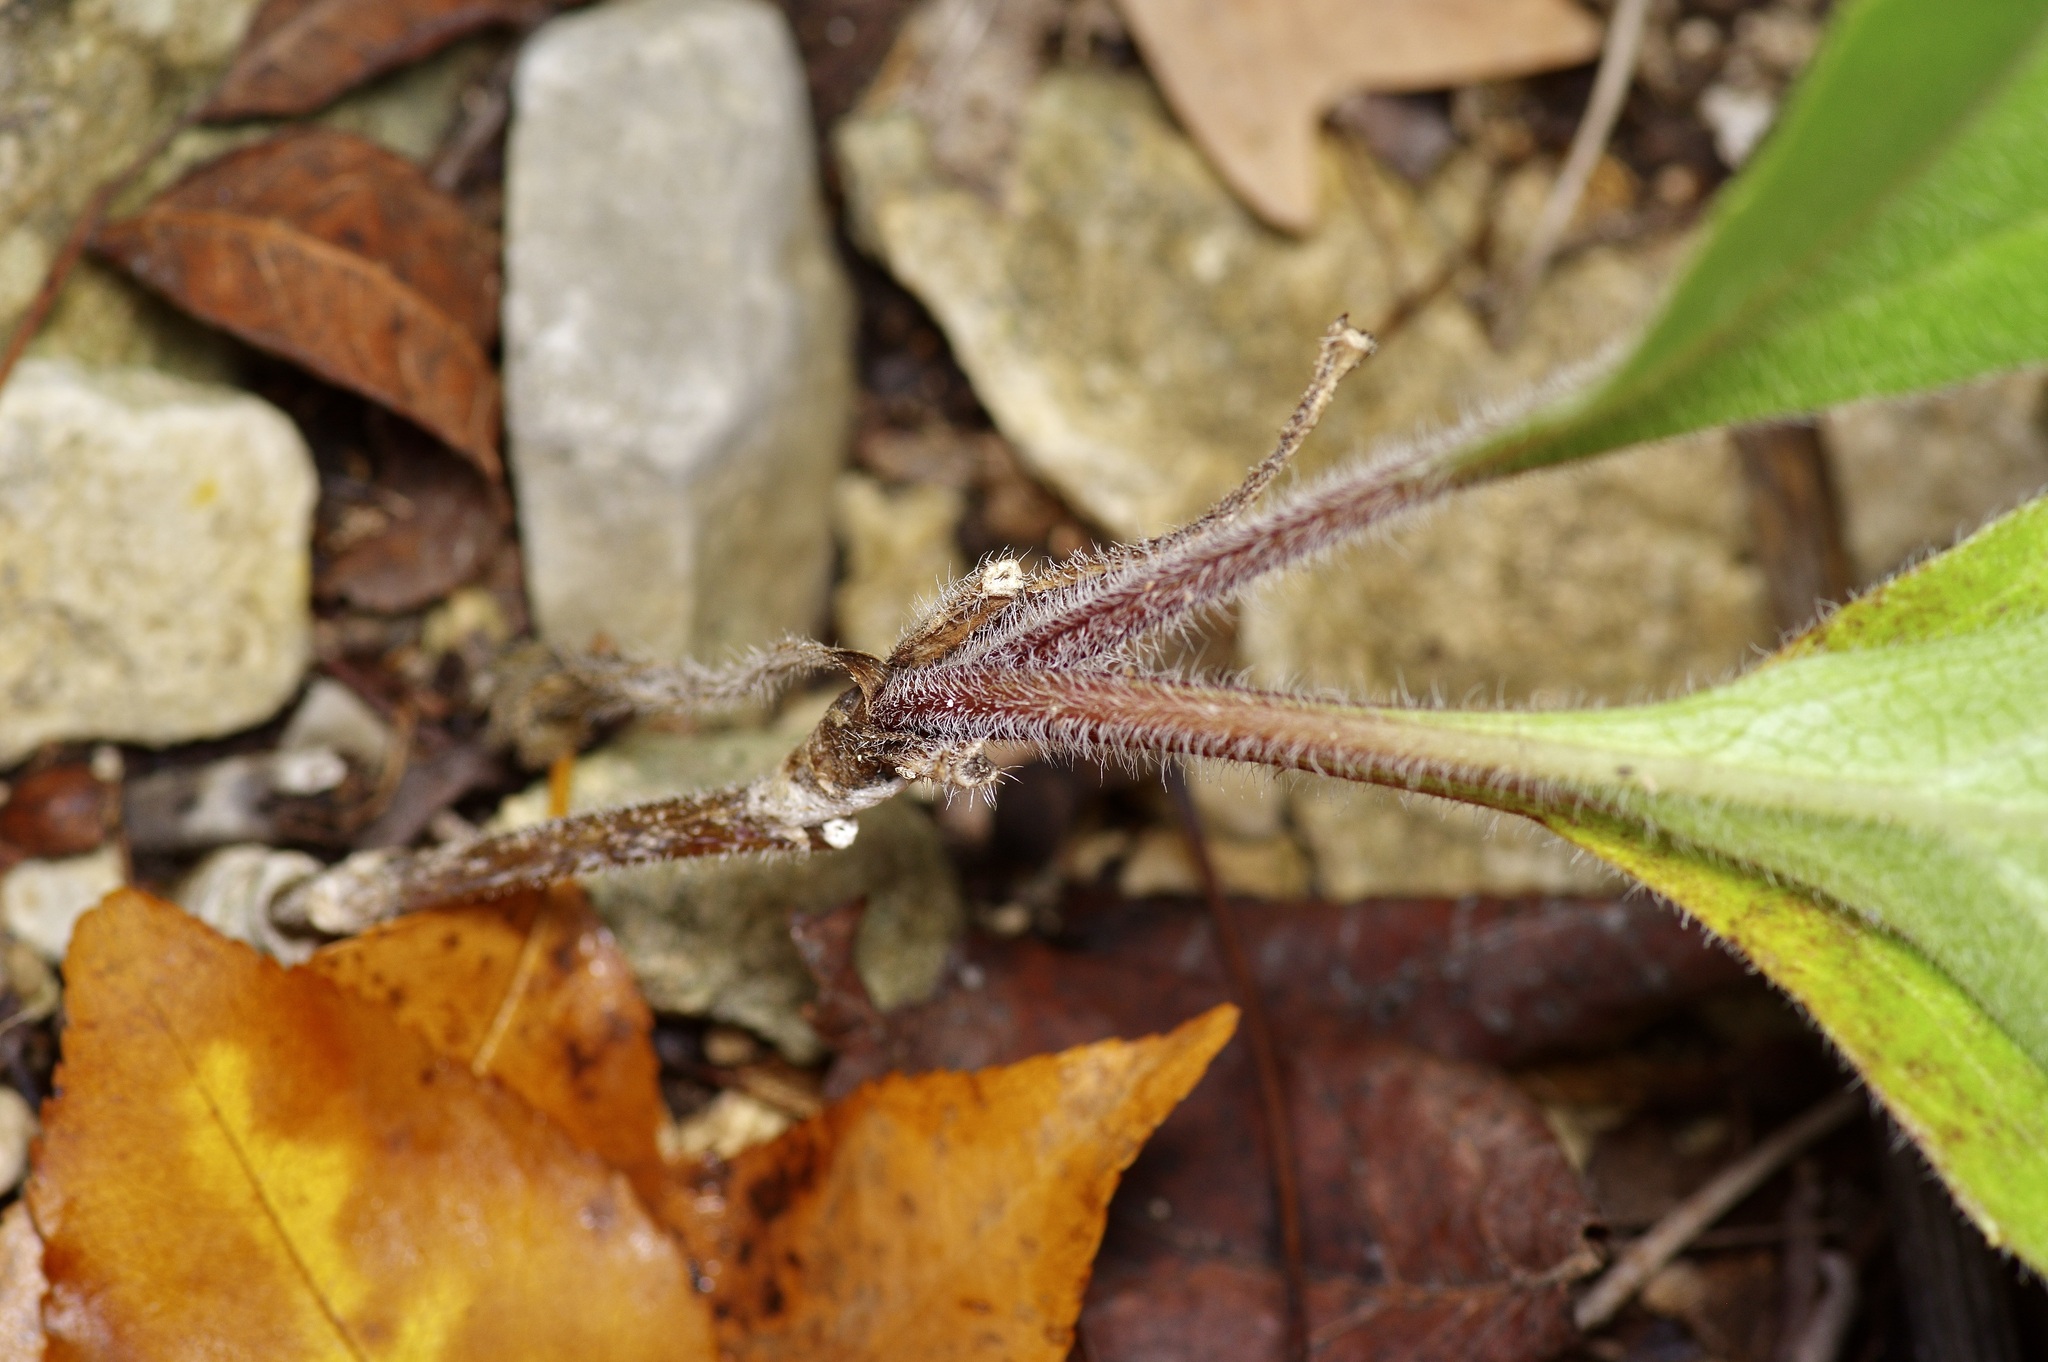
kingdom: Plantae
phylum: Tracheophyta
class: Magnoliopsida
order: Asterales
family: Asteraceae
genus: Silphium
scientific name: Silphium asteriscus
